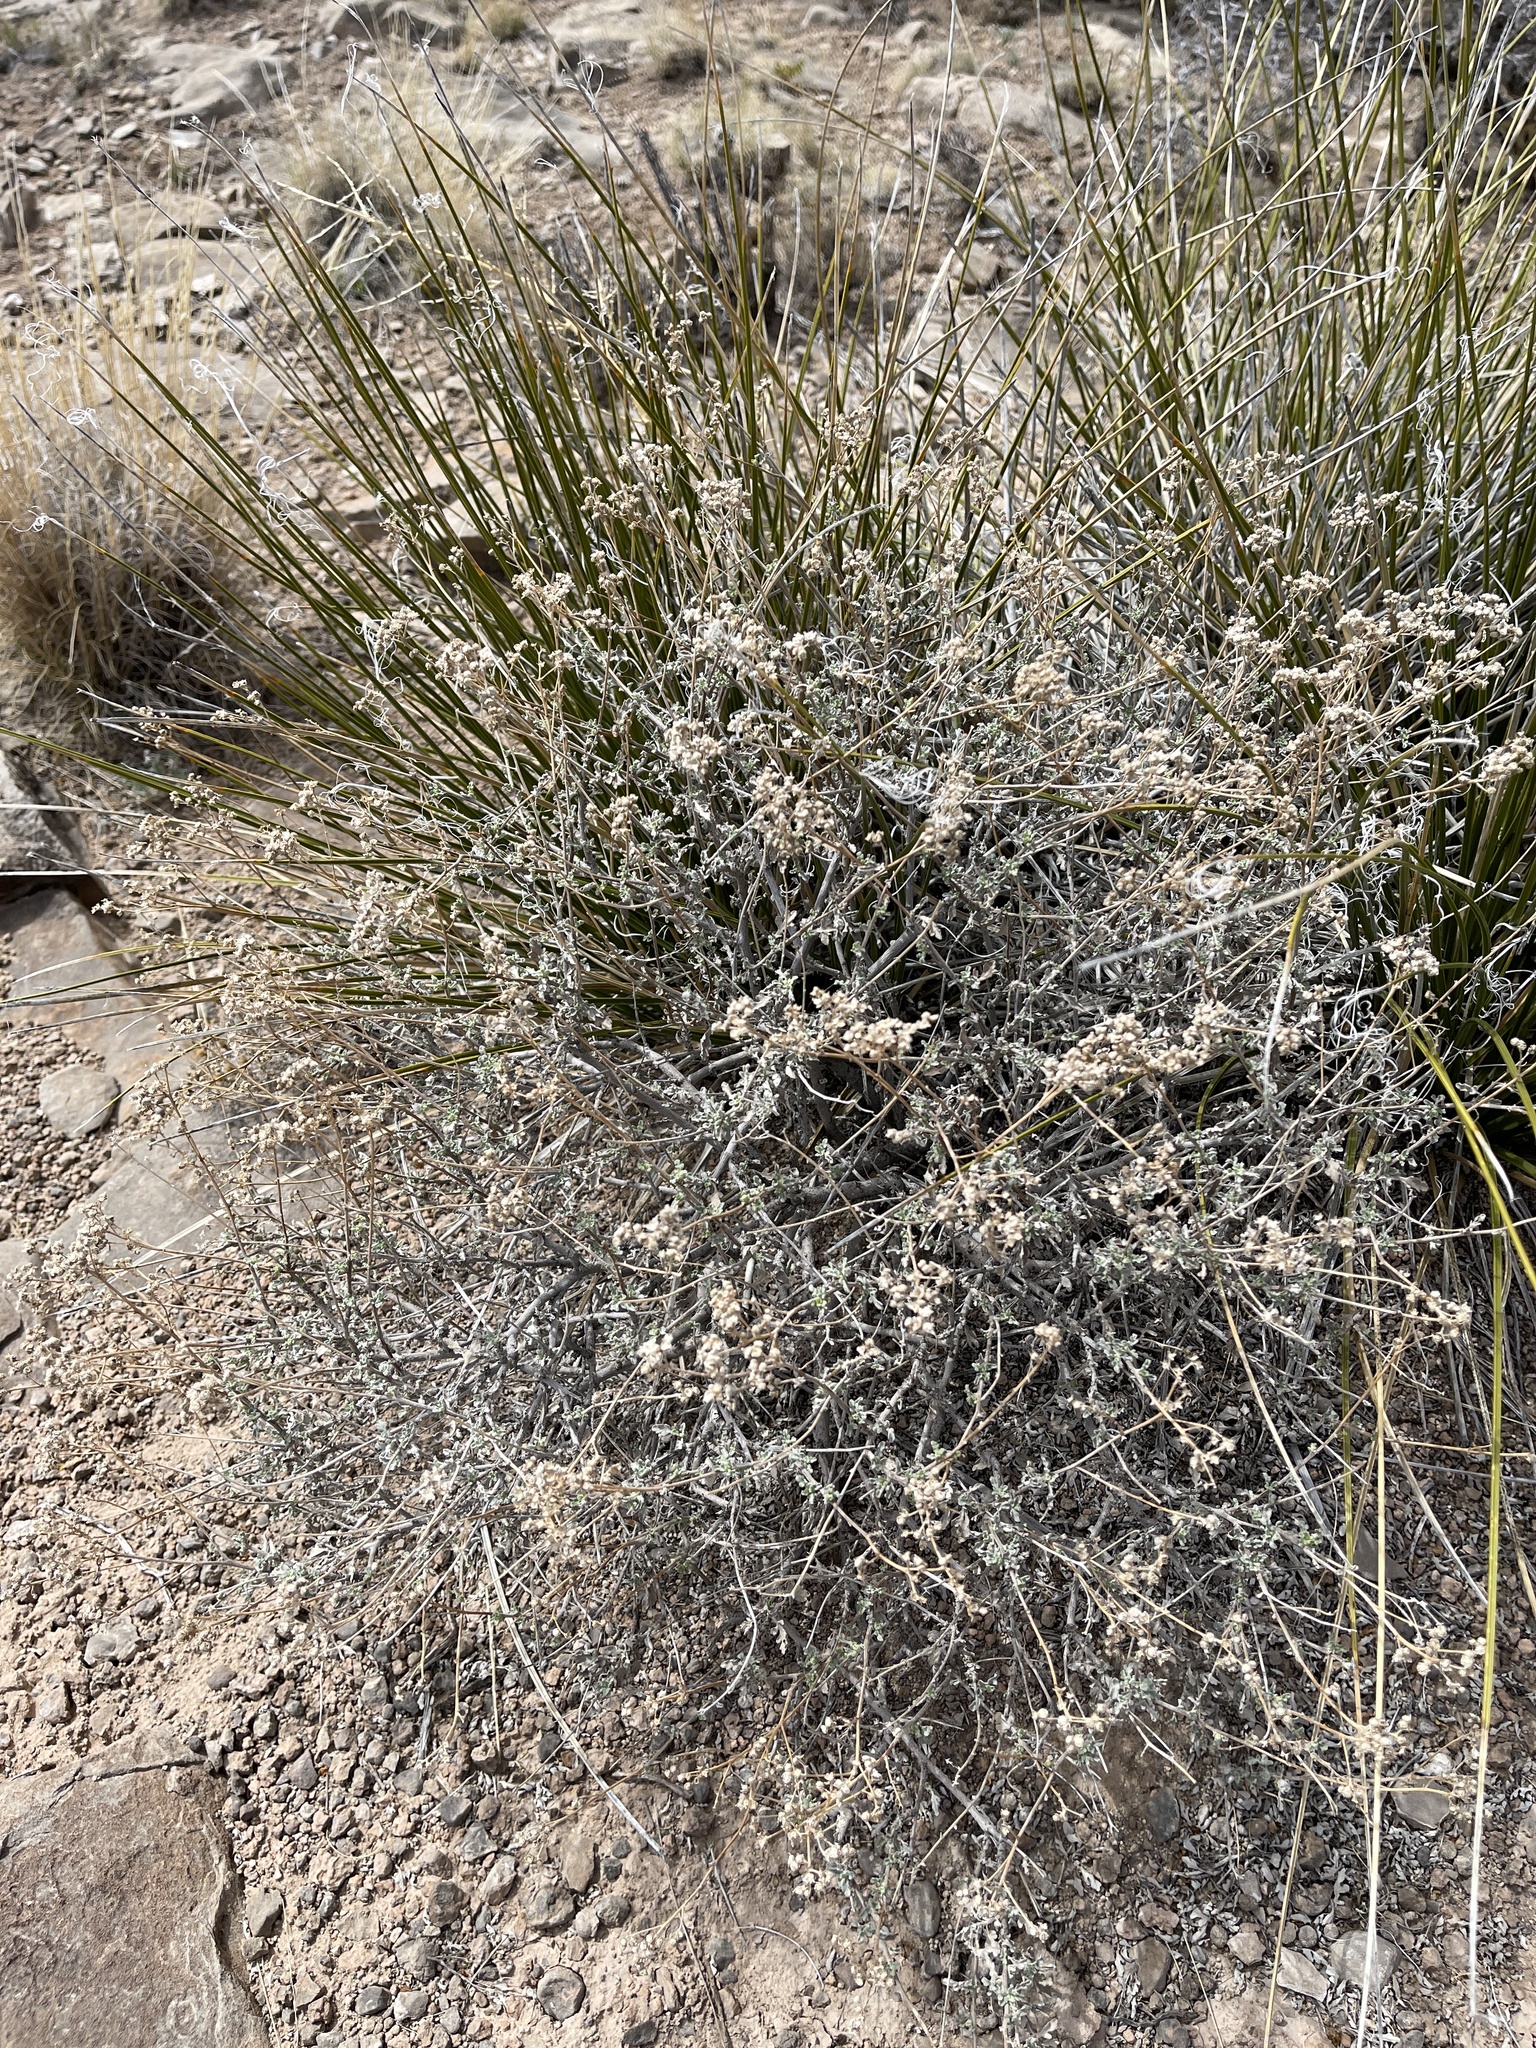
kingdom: Plantae
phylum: Tracheophyta
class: Magnoliopsida
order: Asterales
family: Asteraceae
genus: Parthenium
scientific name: Parthenium incanum
